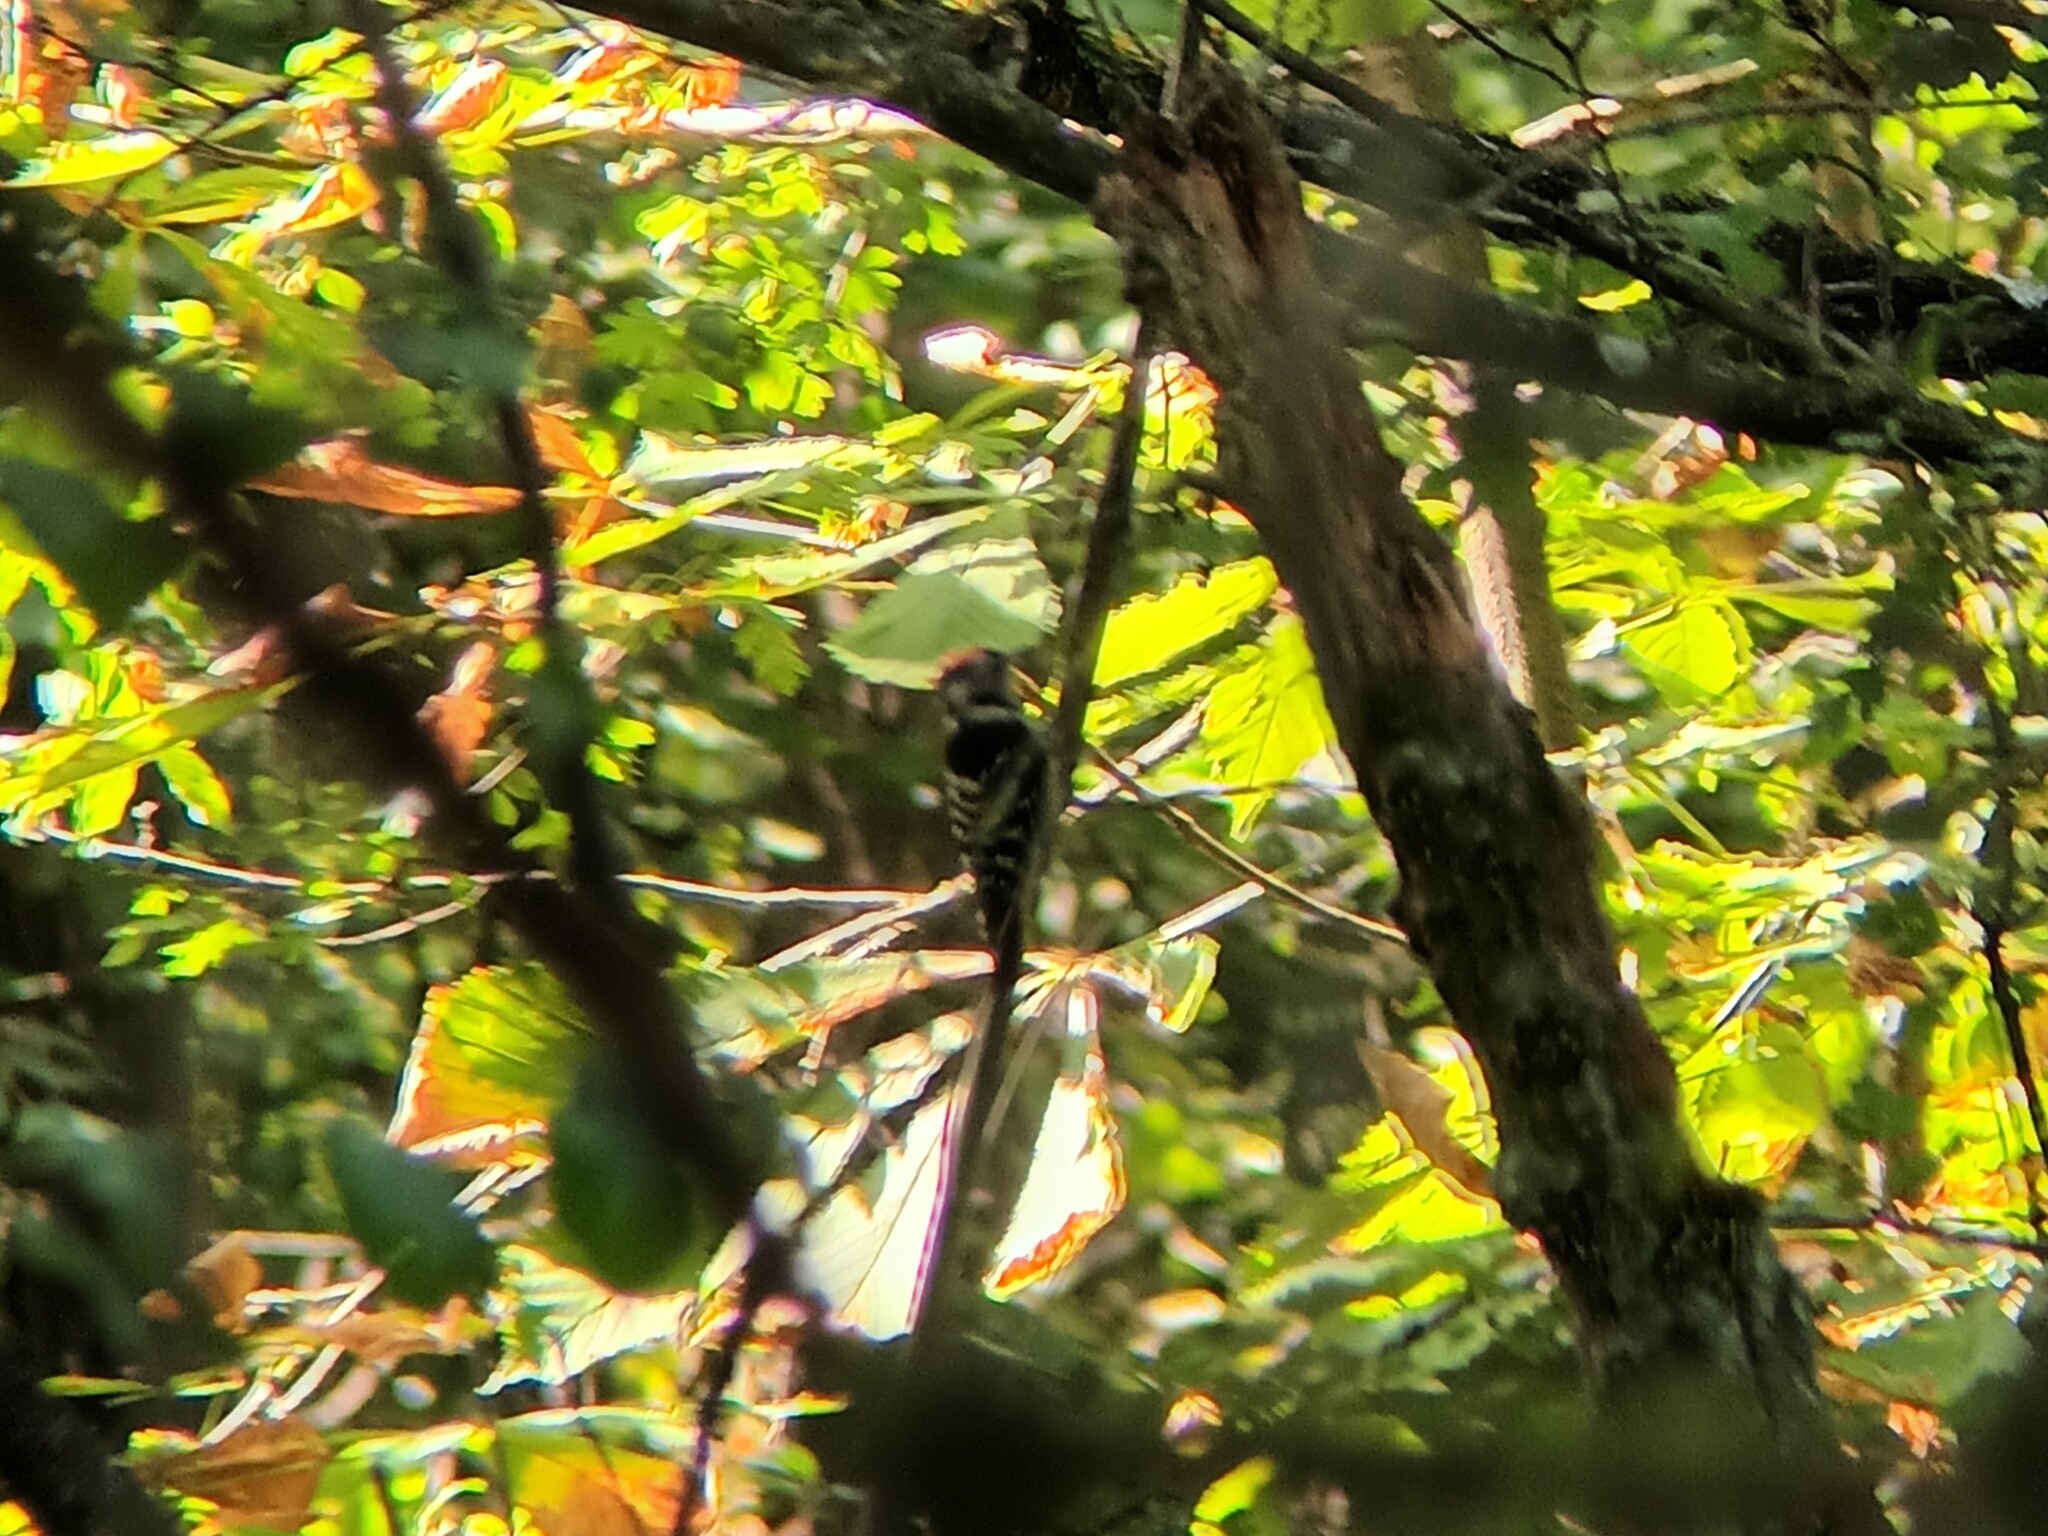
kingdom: Animalia
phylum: Chordata
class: Aves
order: Piciformes
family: Picidae
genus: Dryobates
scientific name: Dryobates minor
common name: Lesser spotted woodpecker
